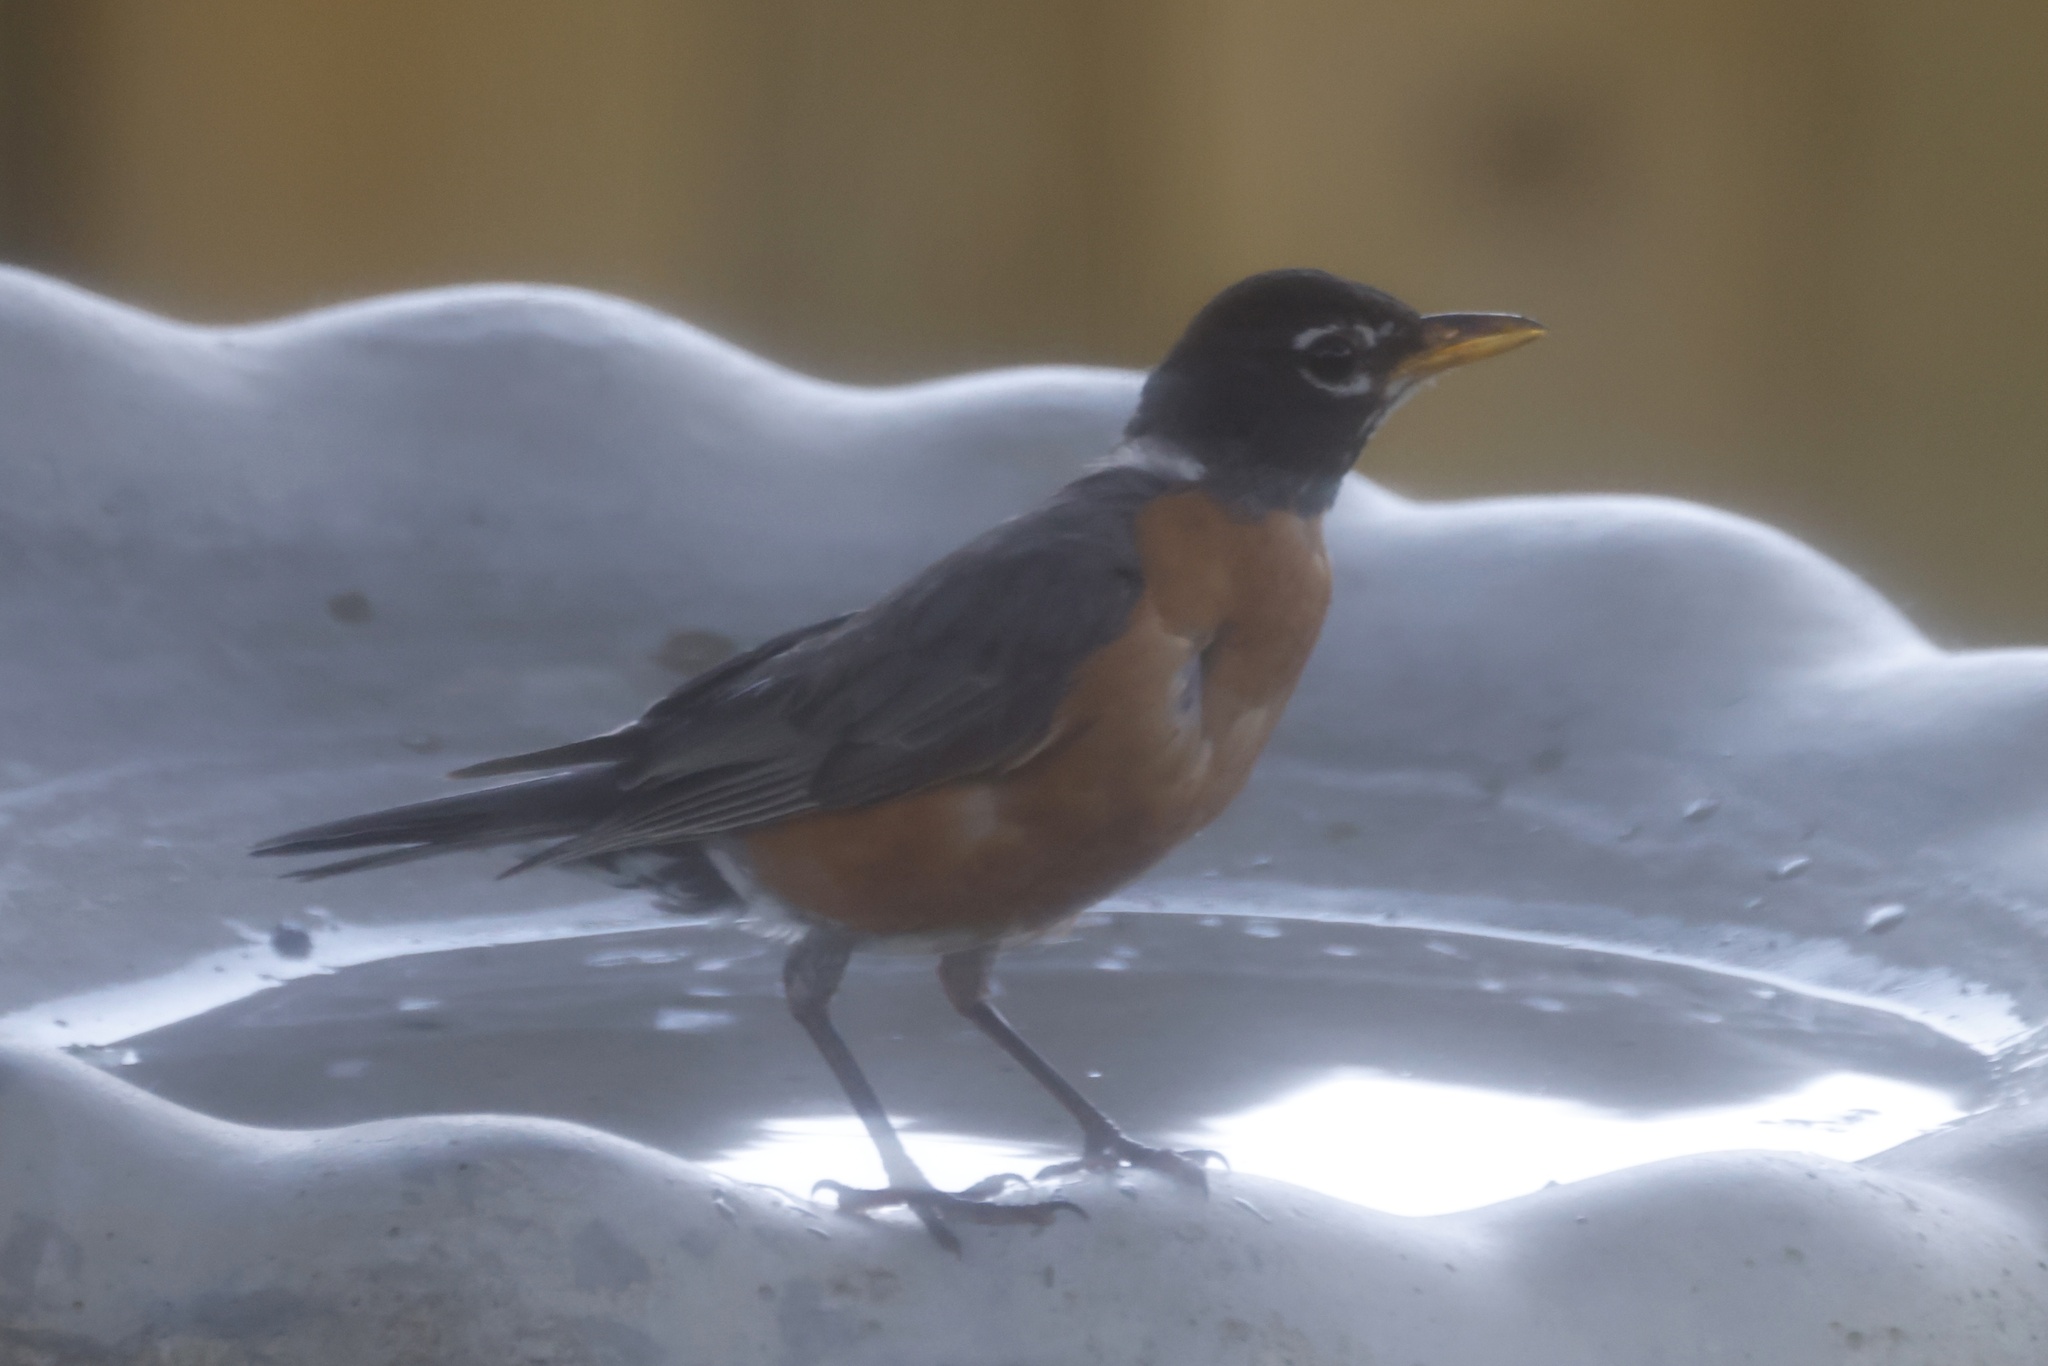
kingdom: Animalia
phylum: Chordata
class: Aves
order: Passeriformes
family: Turdidae
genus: Turdus
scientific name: Turdus migratorius
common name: American robin
